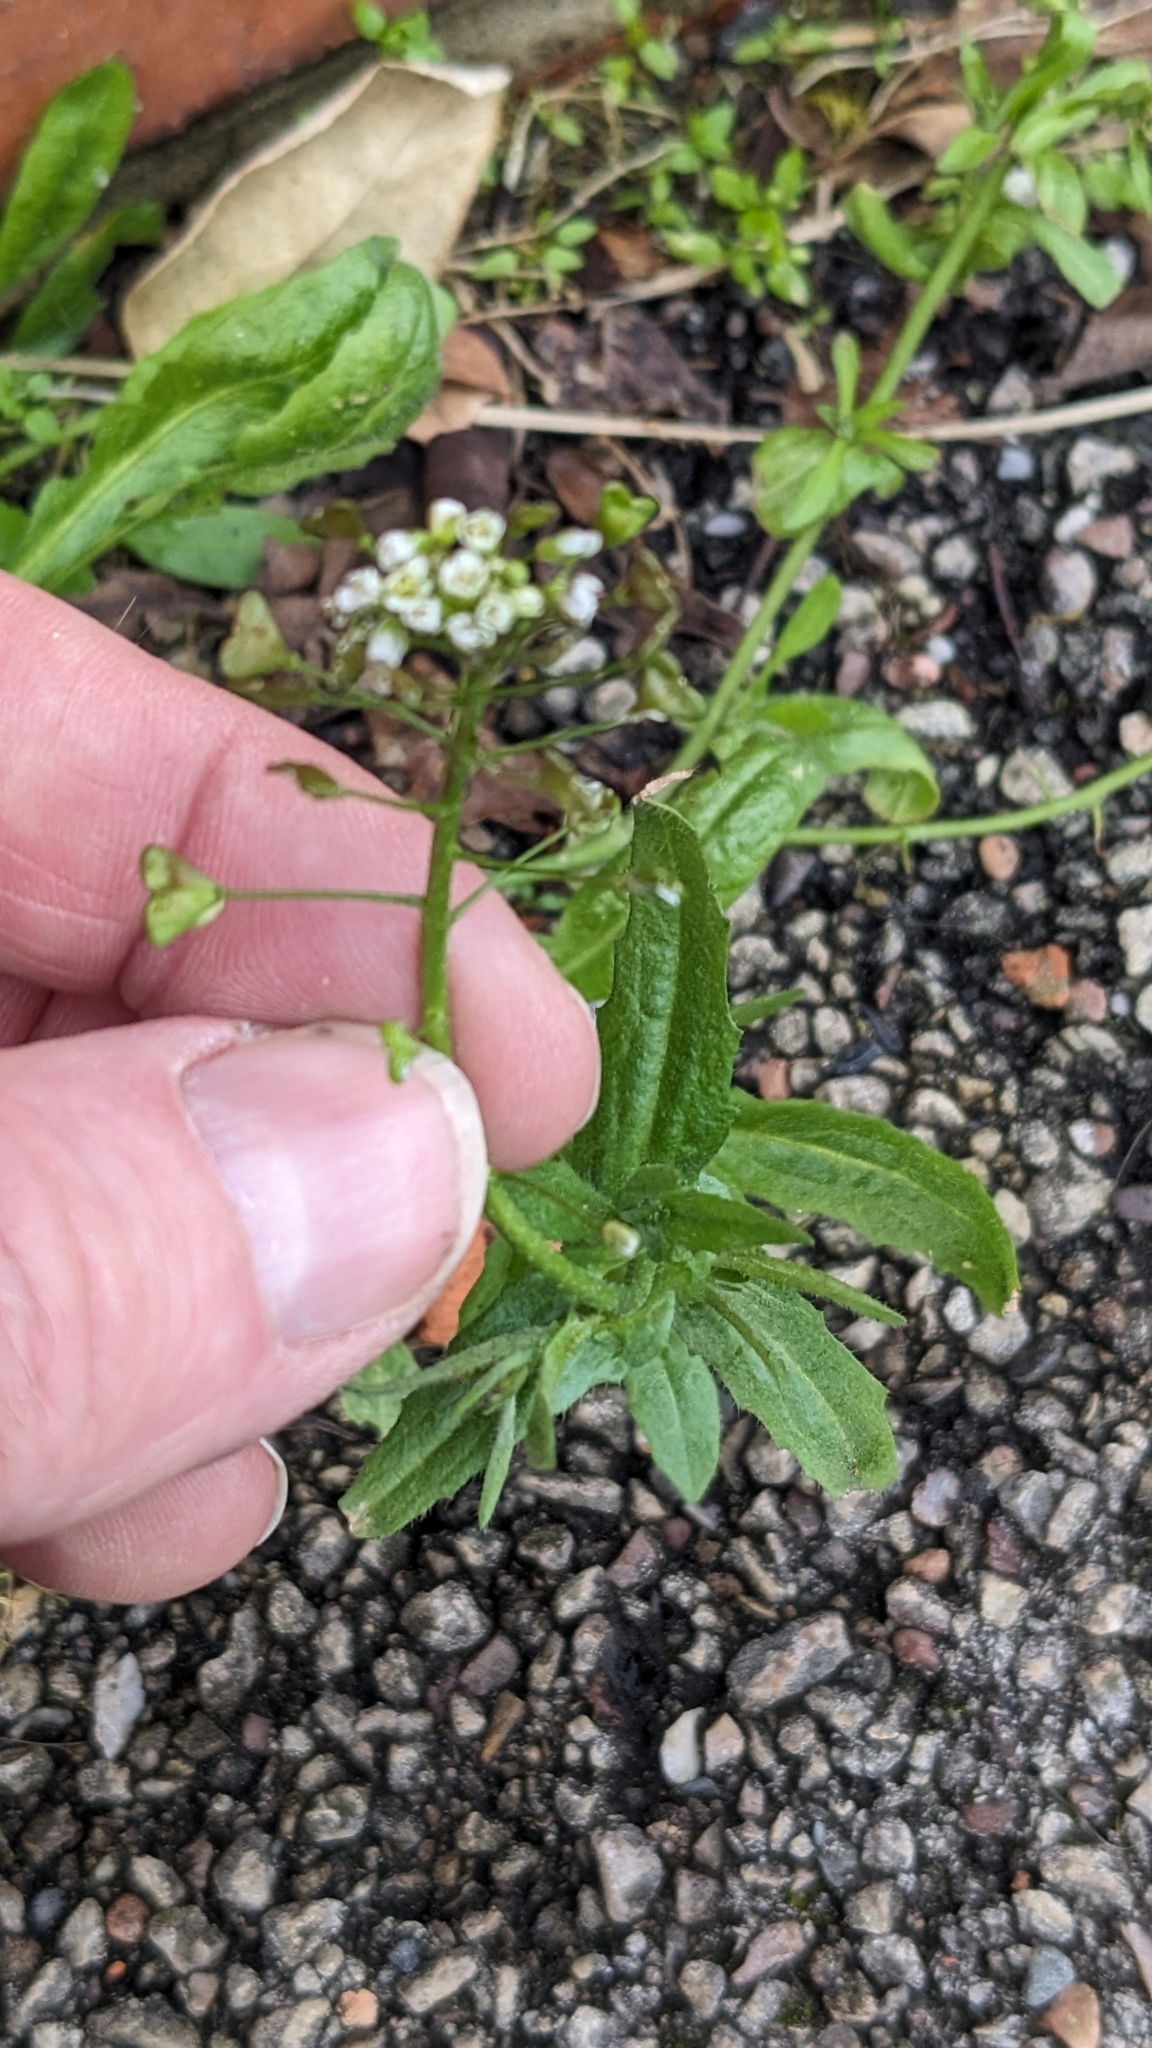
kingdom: Plantae
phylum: Tracheophyta
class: Magnoliopsida
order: Brassicales
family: Brassicaceae
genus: Capsella
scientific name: Capsella bursa-pastoris
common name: Shepherd's purse
